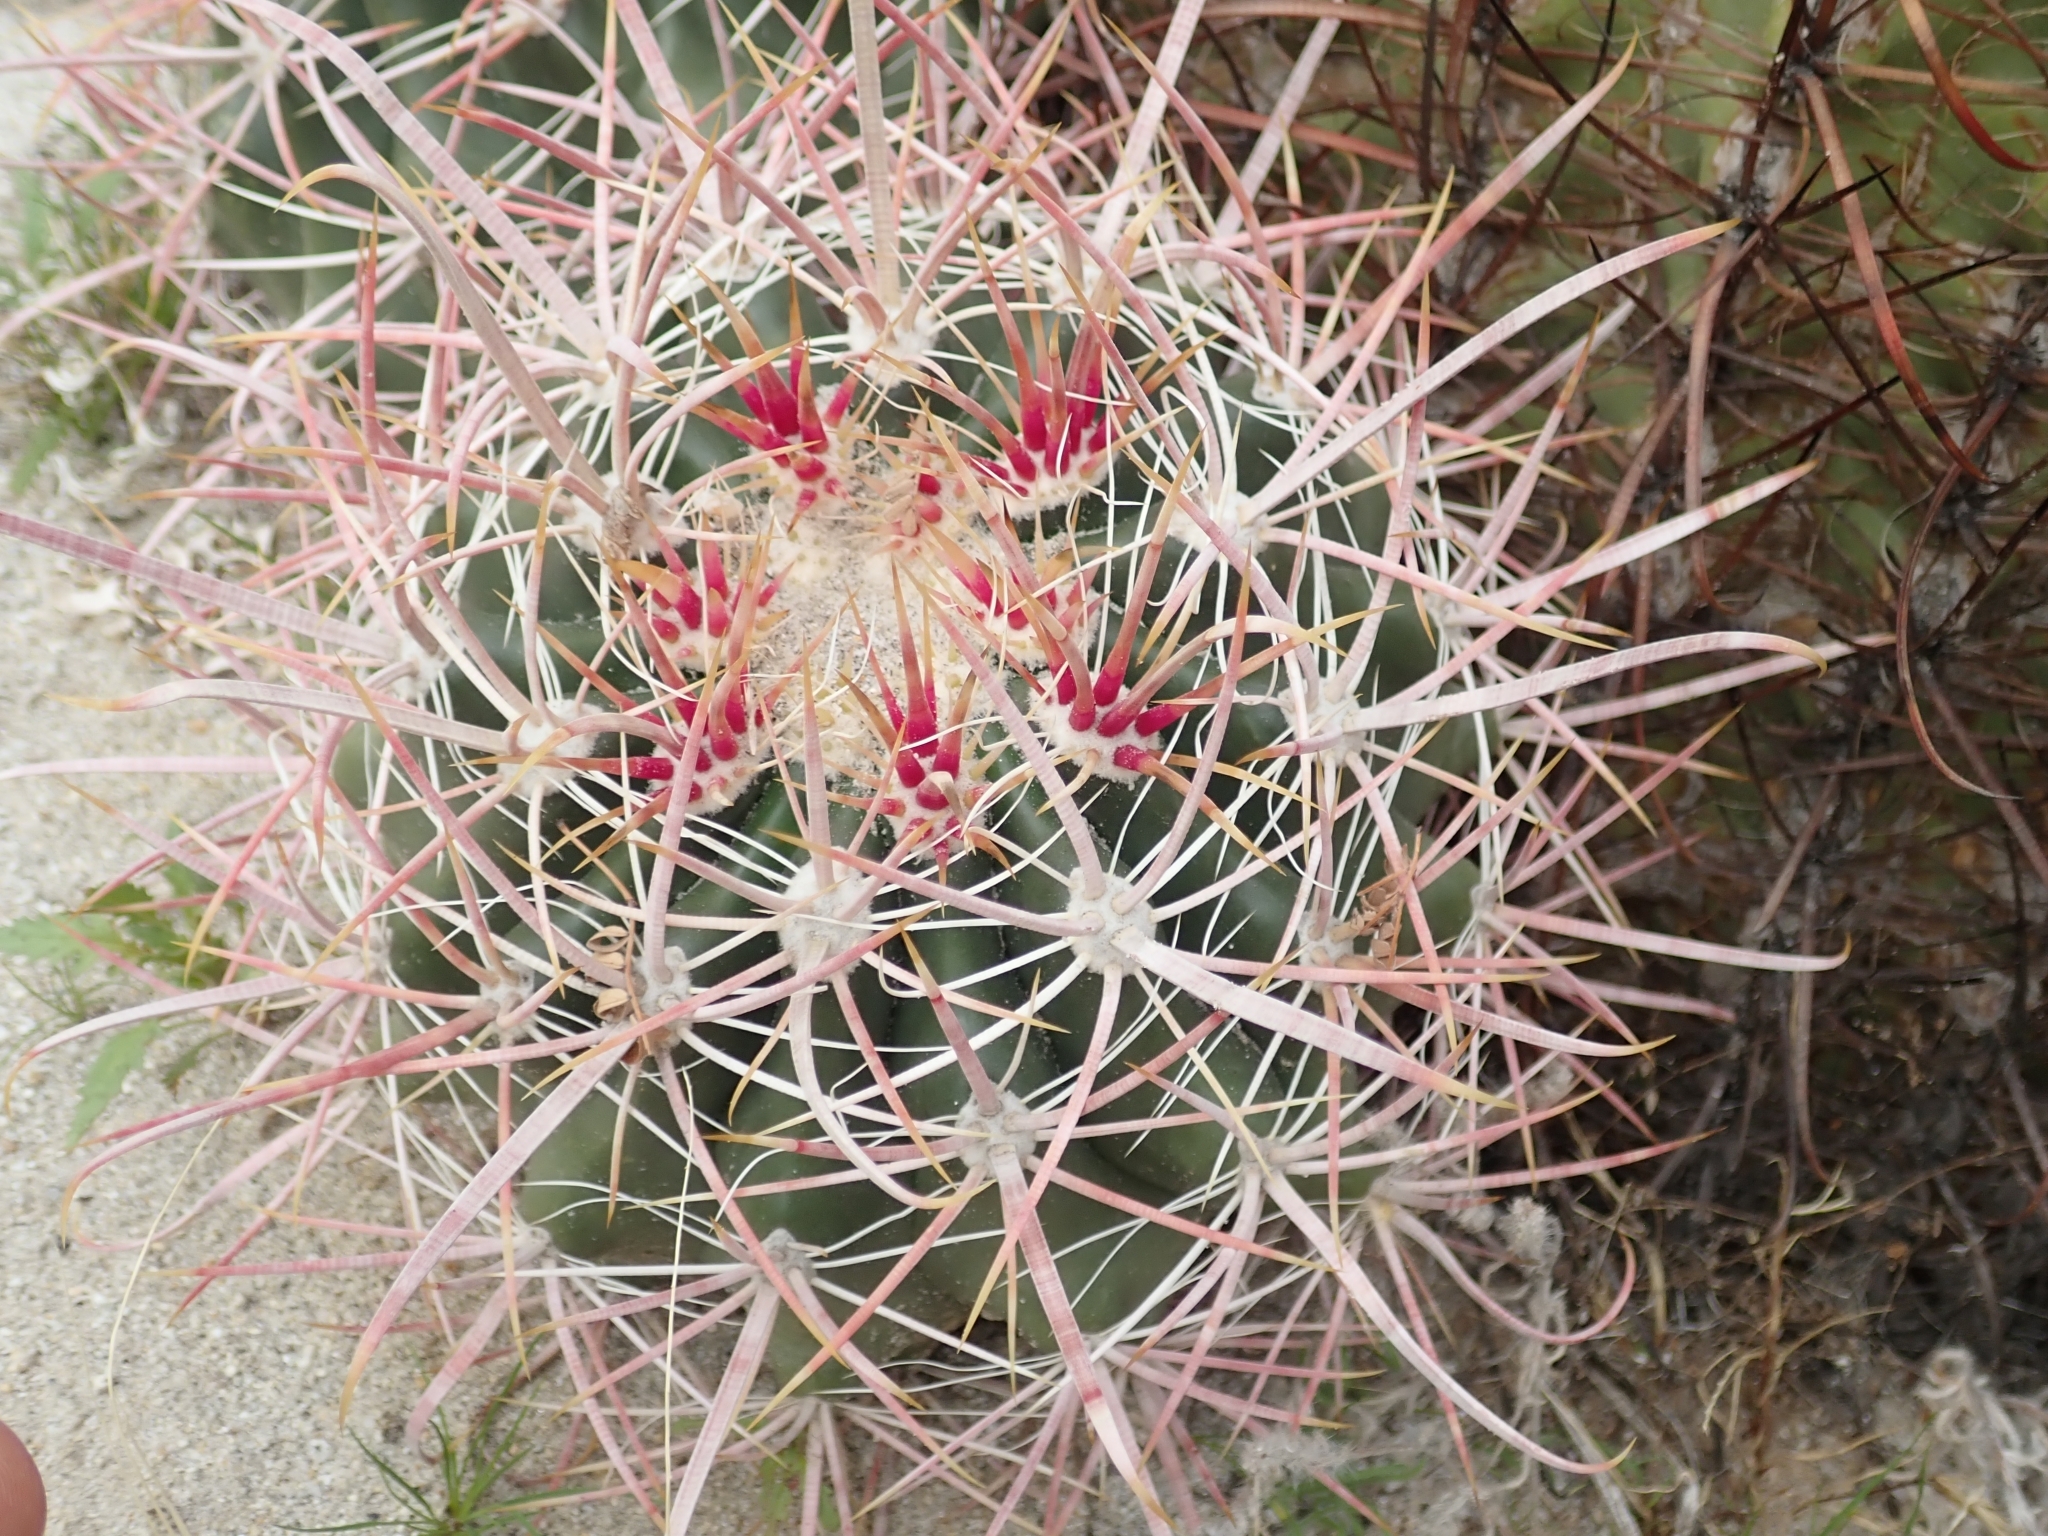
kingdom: Plantae
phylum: Tracheophyta
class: Magnoliopsida
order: Caryophyllales
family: Cactaceae
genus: Ferocactus
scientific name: Ferocactus cylindraceus
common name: California barrel cactus
